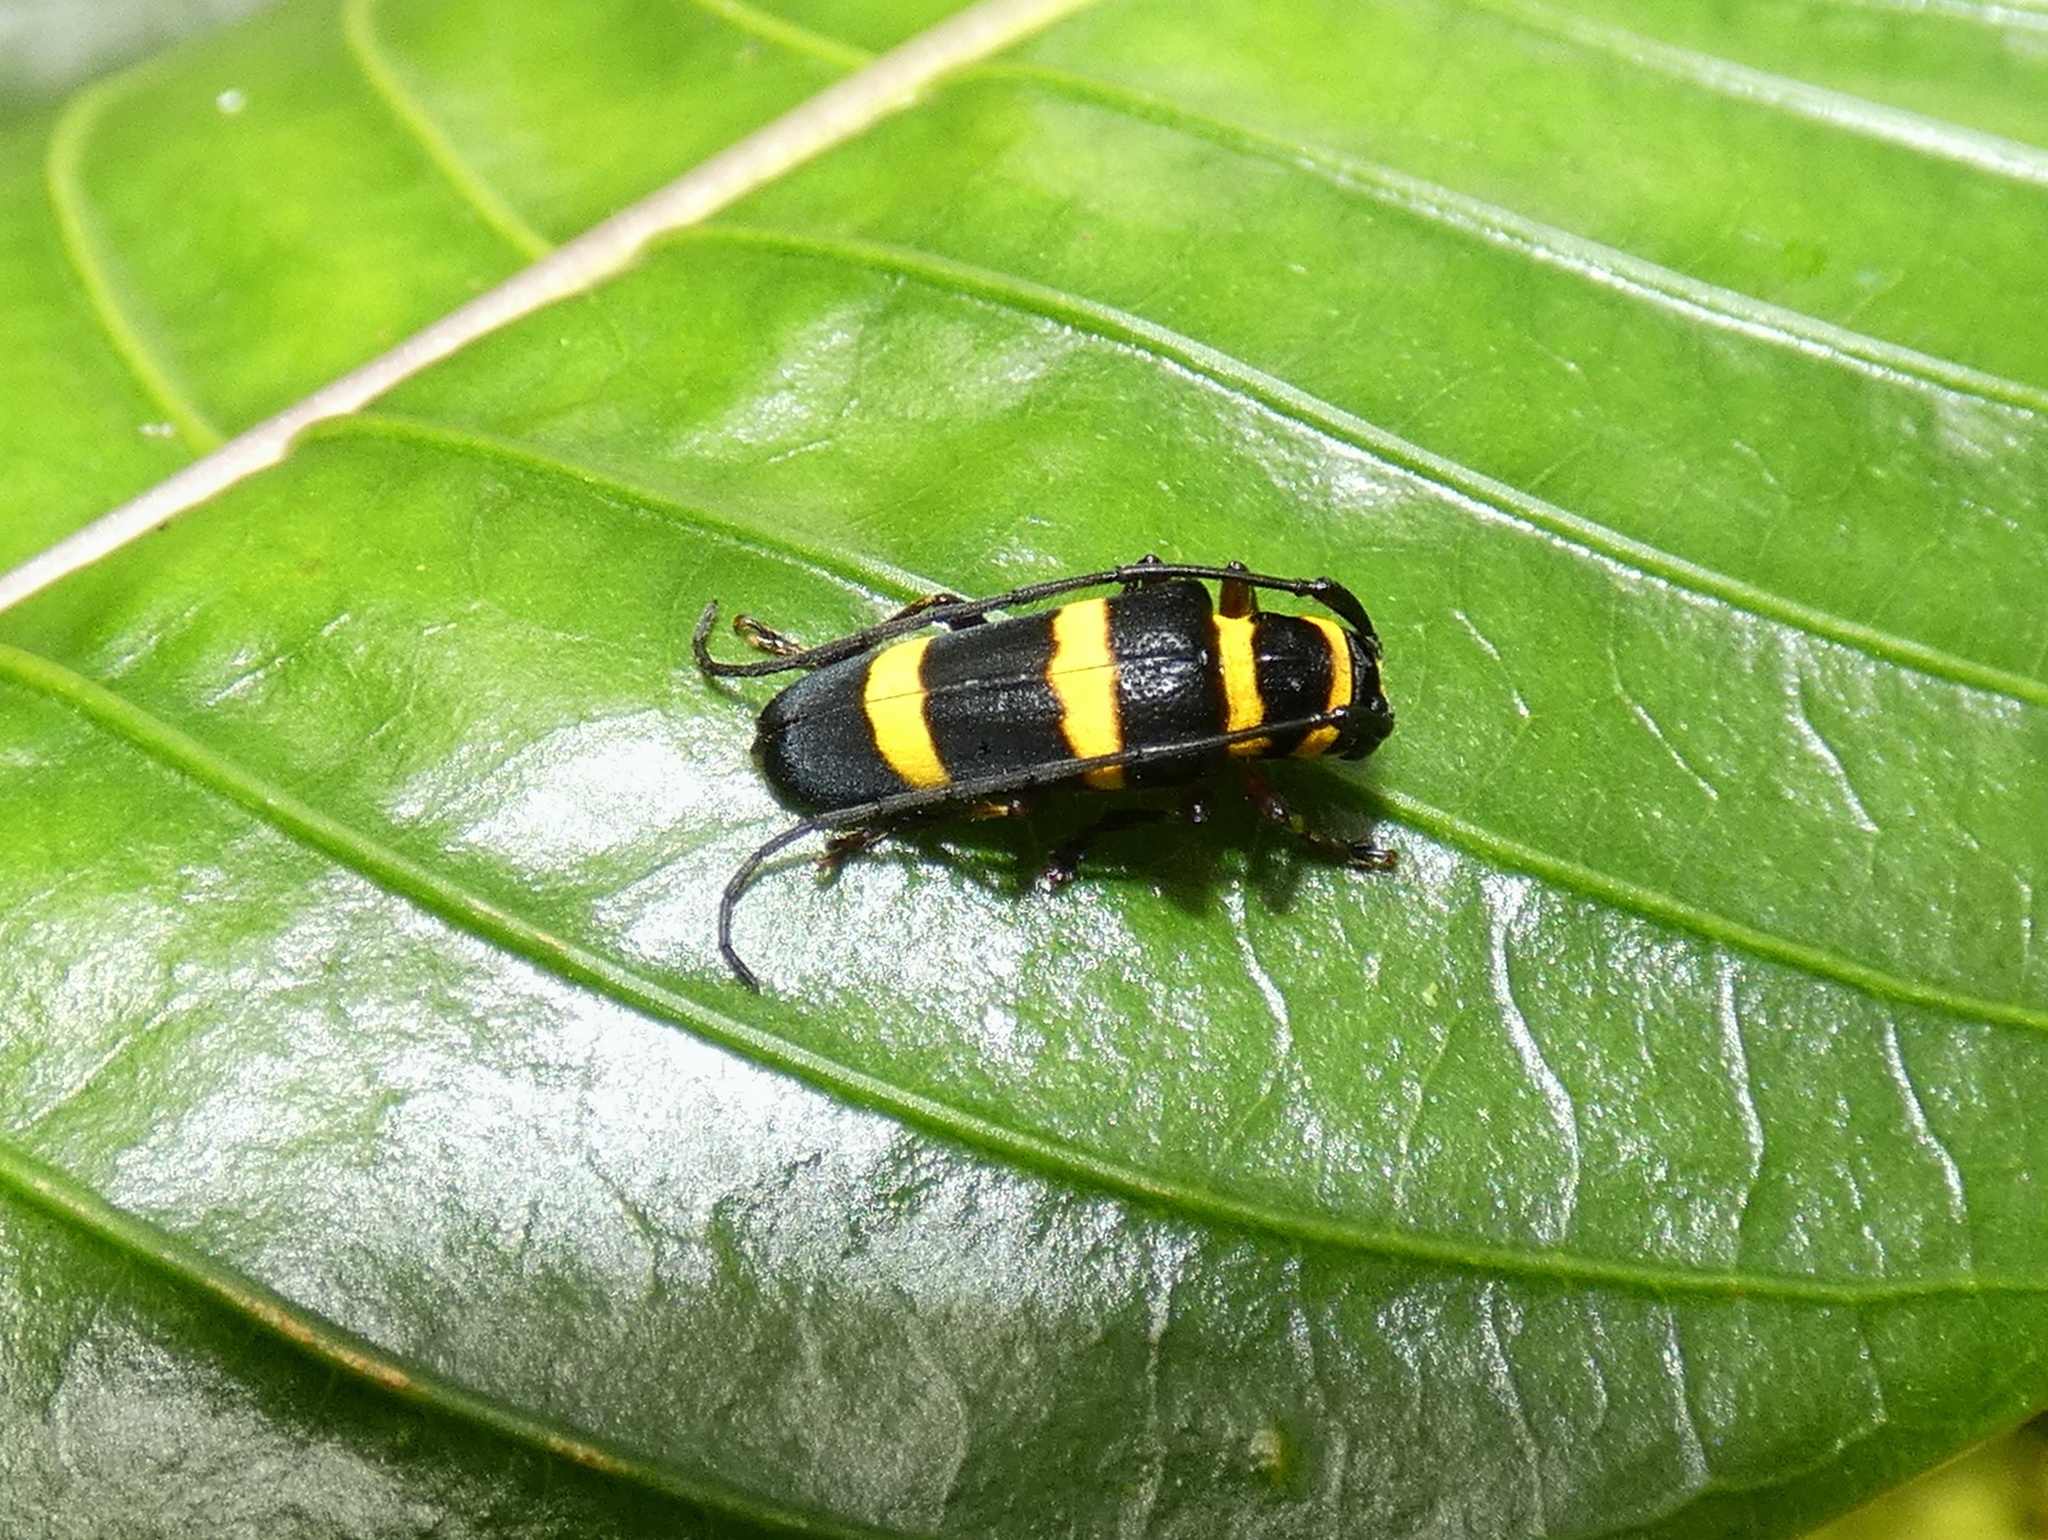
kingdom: Animalia
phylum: Arthropoda
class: Insecta
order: Coleoptera
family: Cerambycidae
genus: Essostruthella
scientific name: Essostruthella notaticollis
